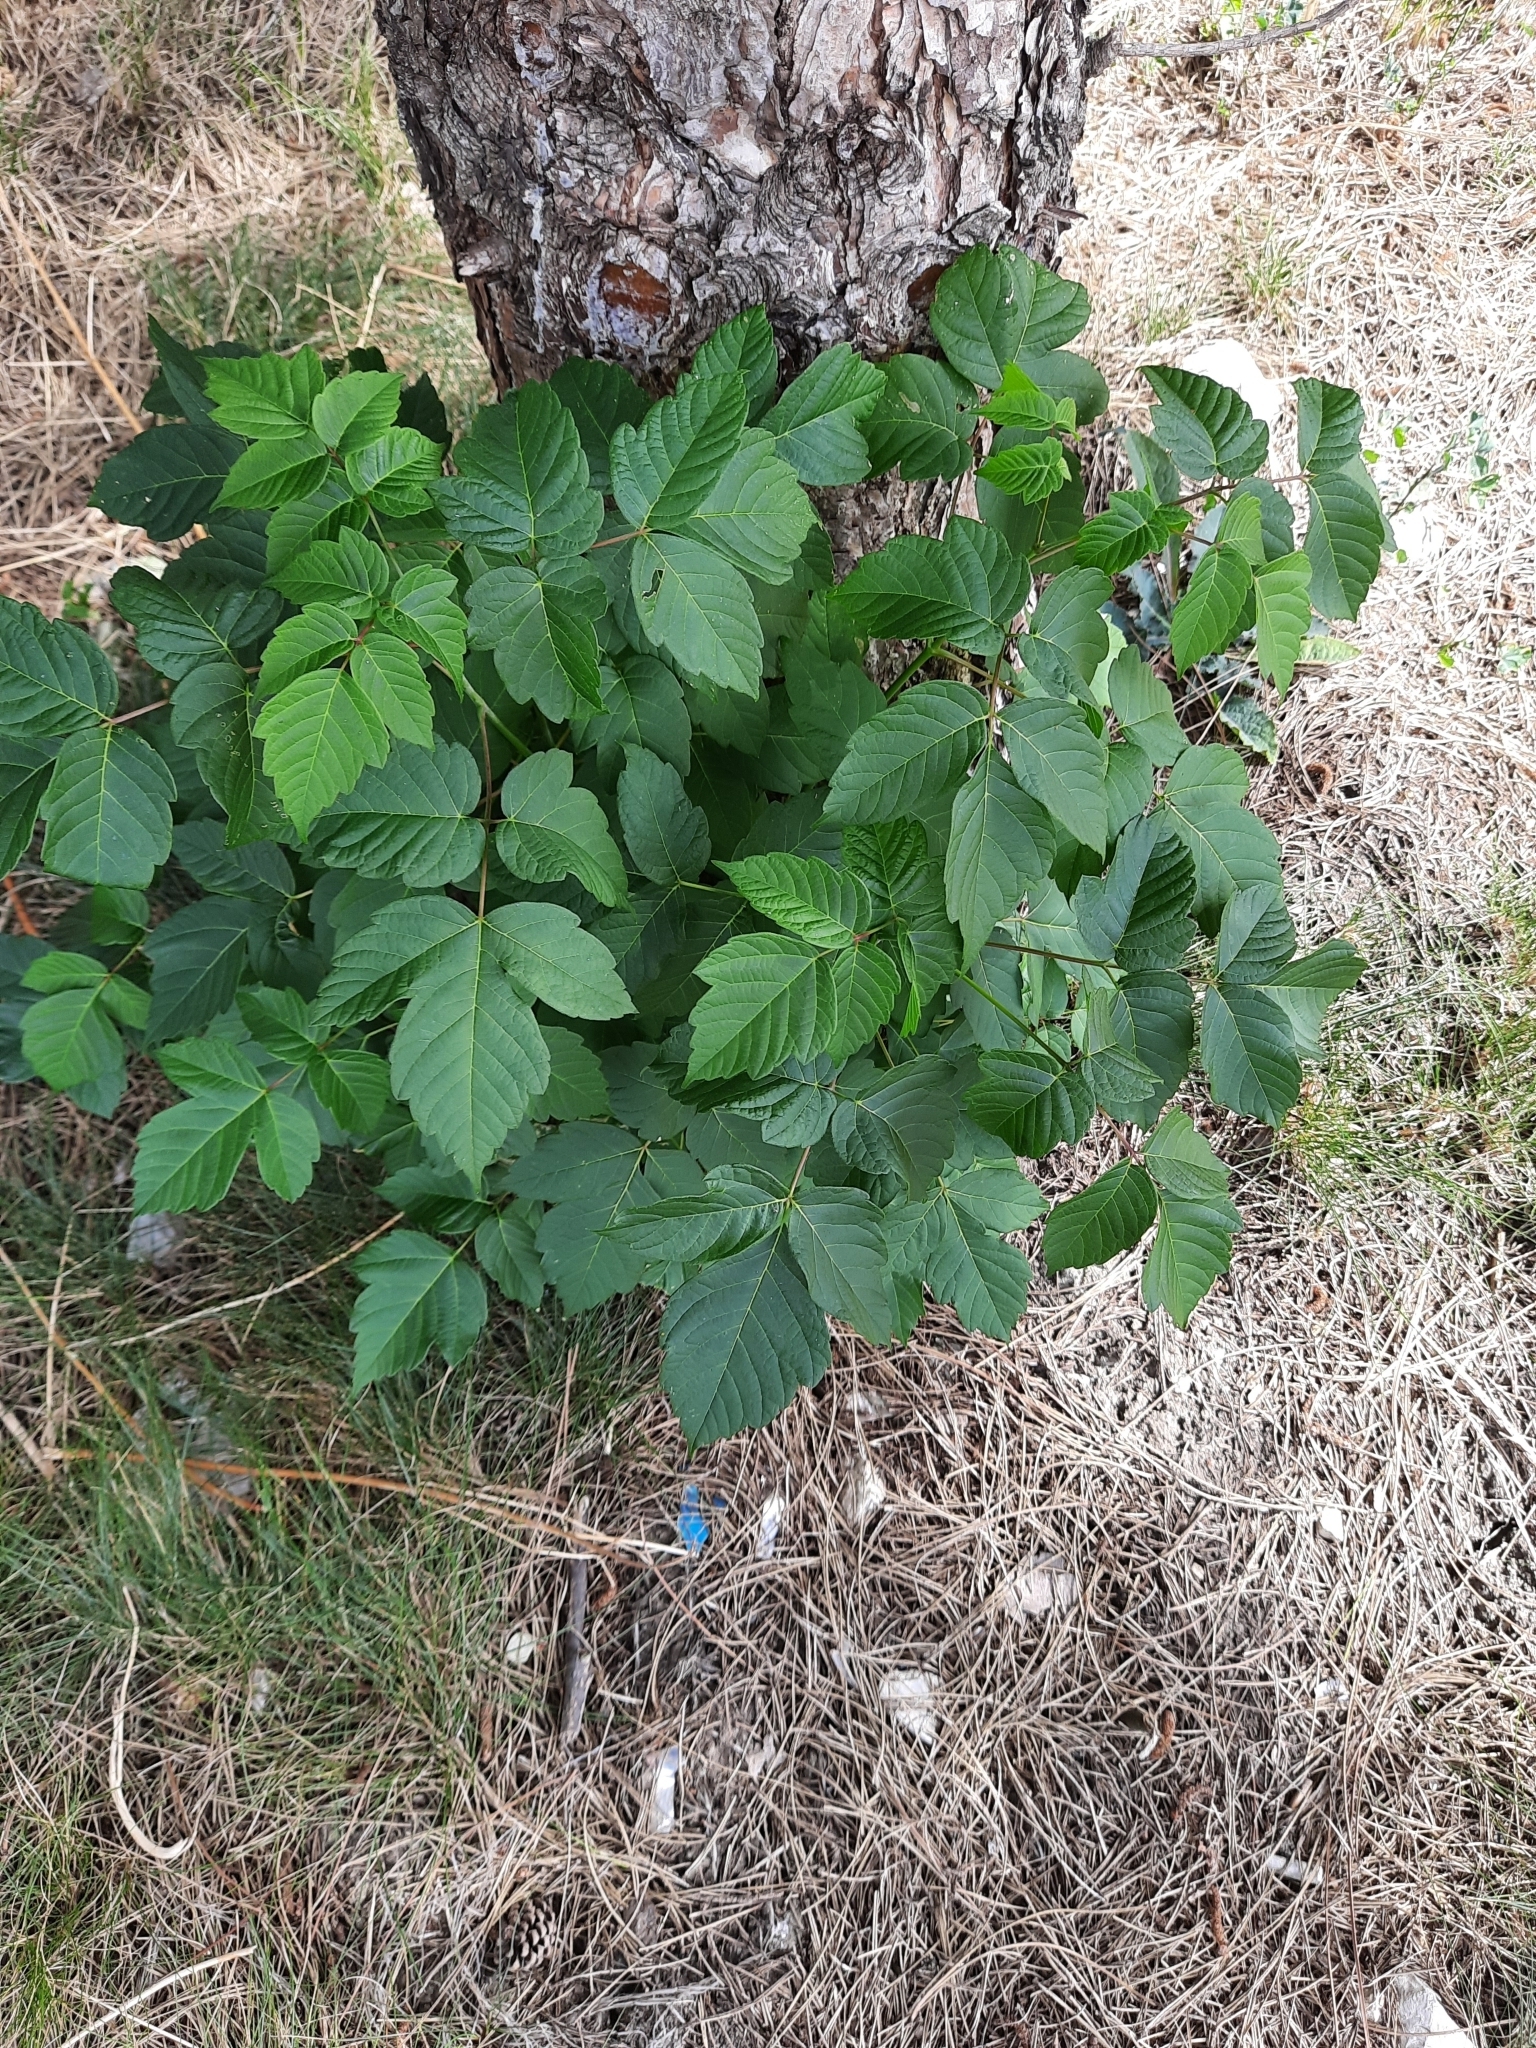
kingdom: Plantae
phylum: Tracheophyta
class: Magnoliopsida
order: Sapindales
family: Sapindaceae
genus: Acer
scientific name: Acer negundo
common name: Ashleaf maple
